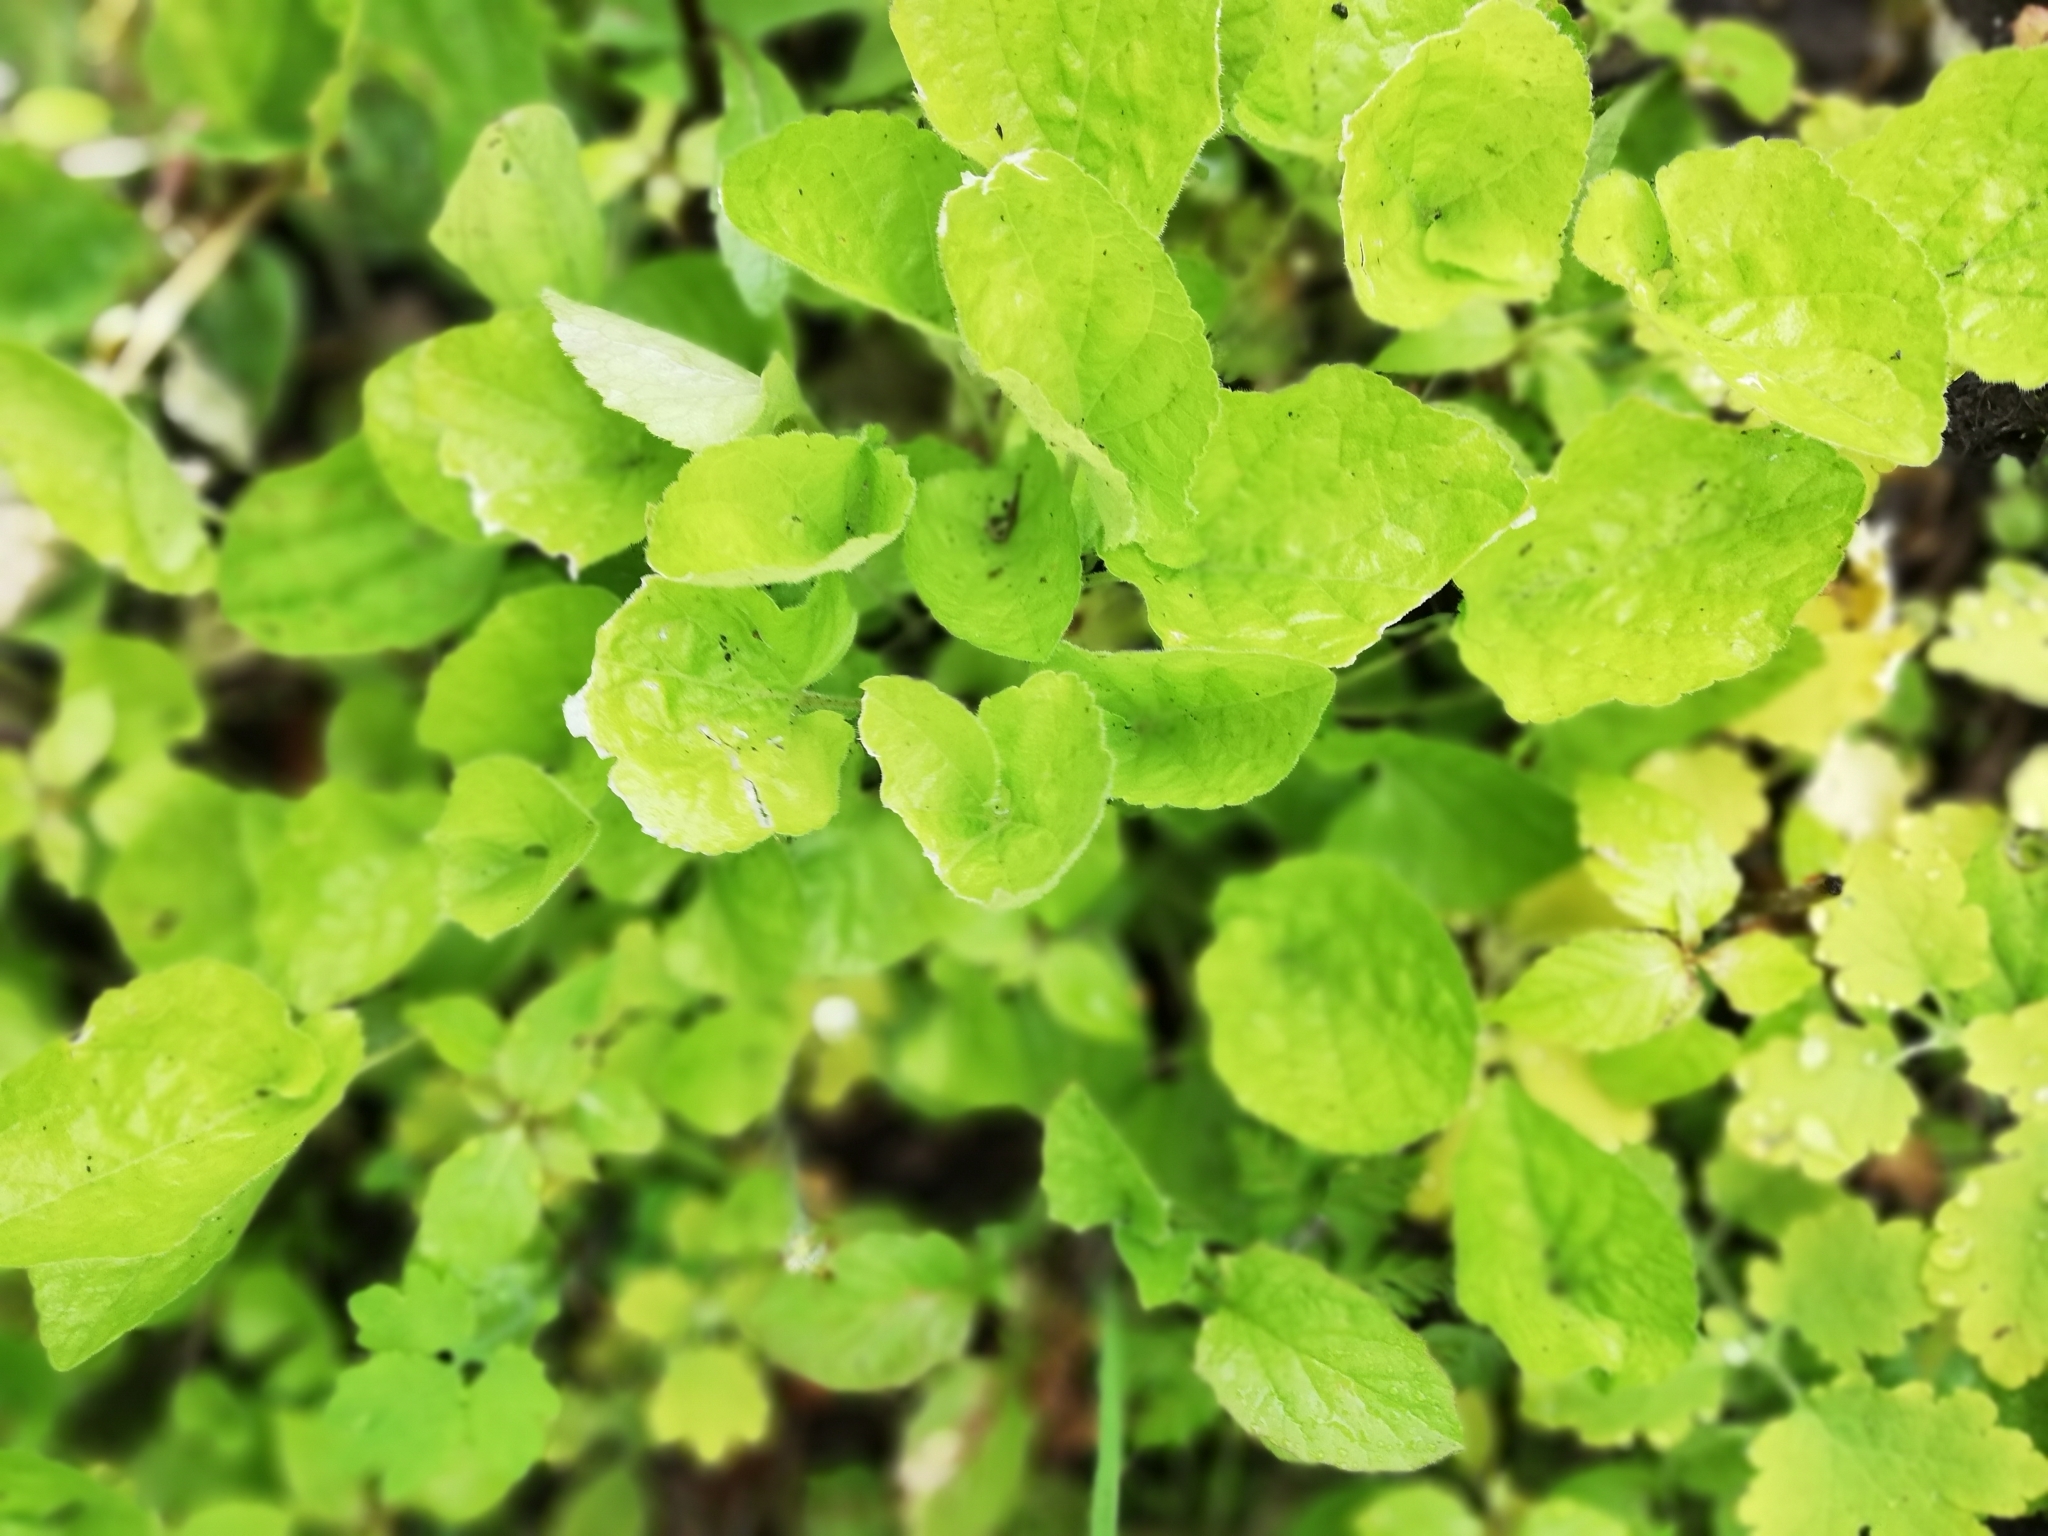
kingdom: Plantae
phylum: Tracheophyta
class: Magnoliopsida
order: Malpighiales
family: Violaceae
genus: Viola
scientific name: Viola odorata
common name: Sweet violet
